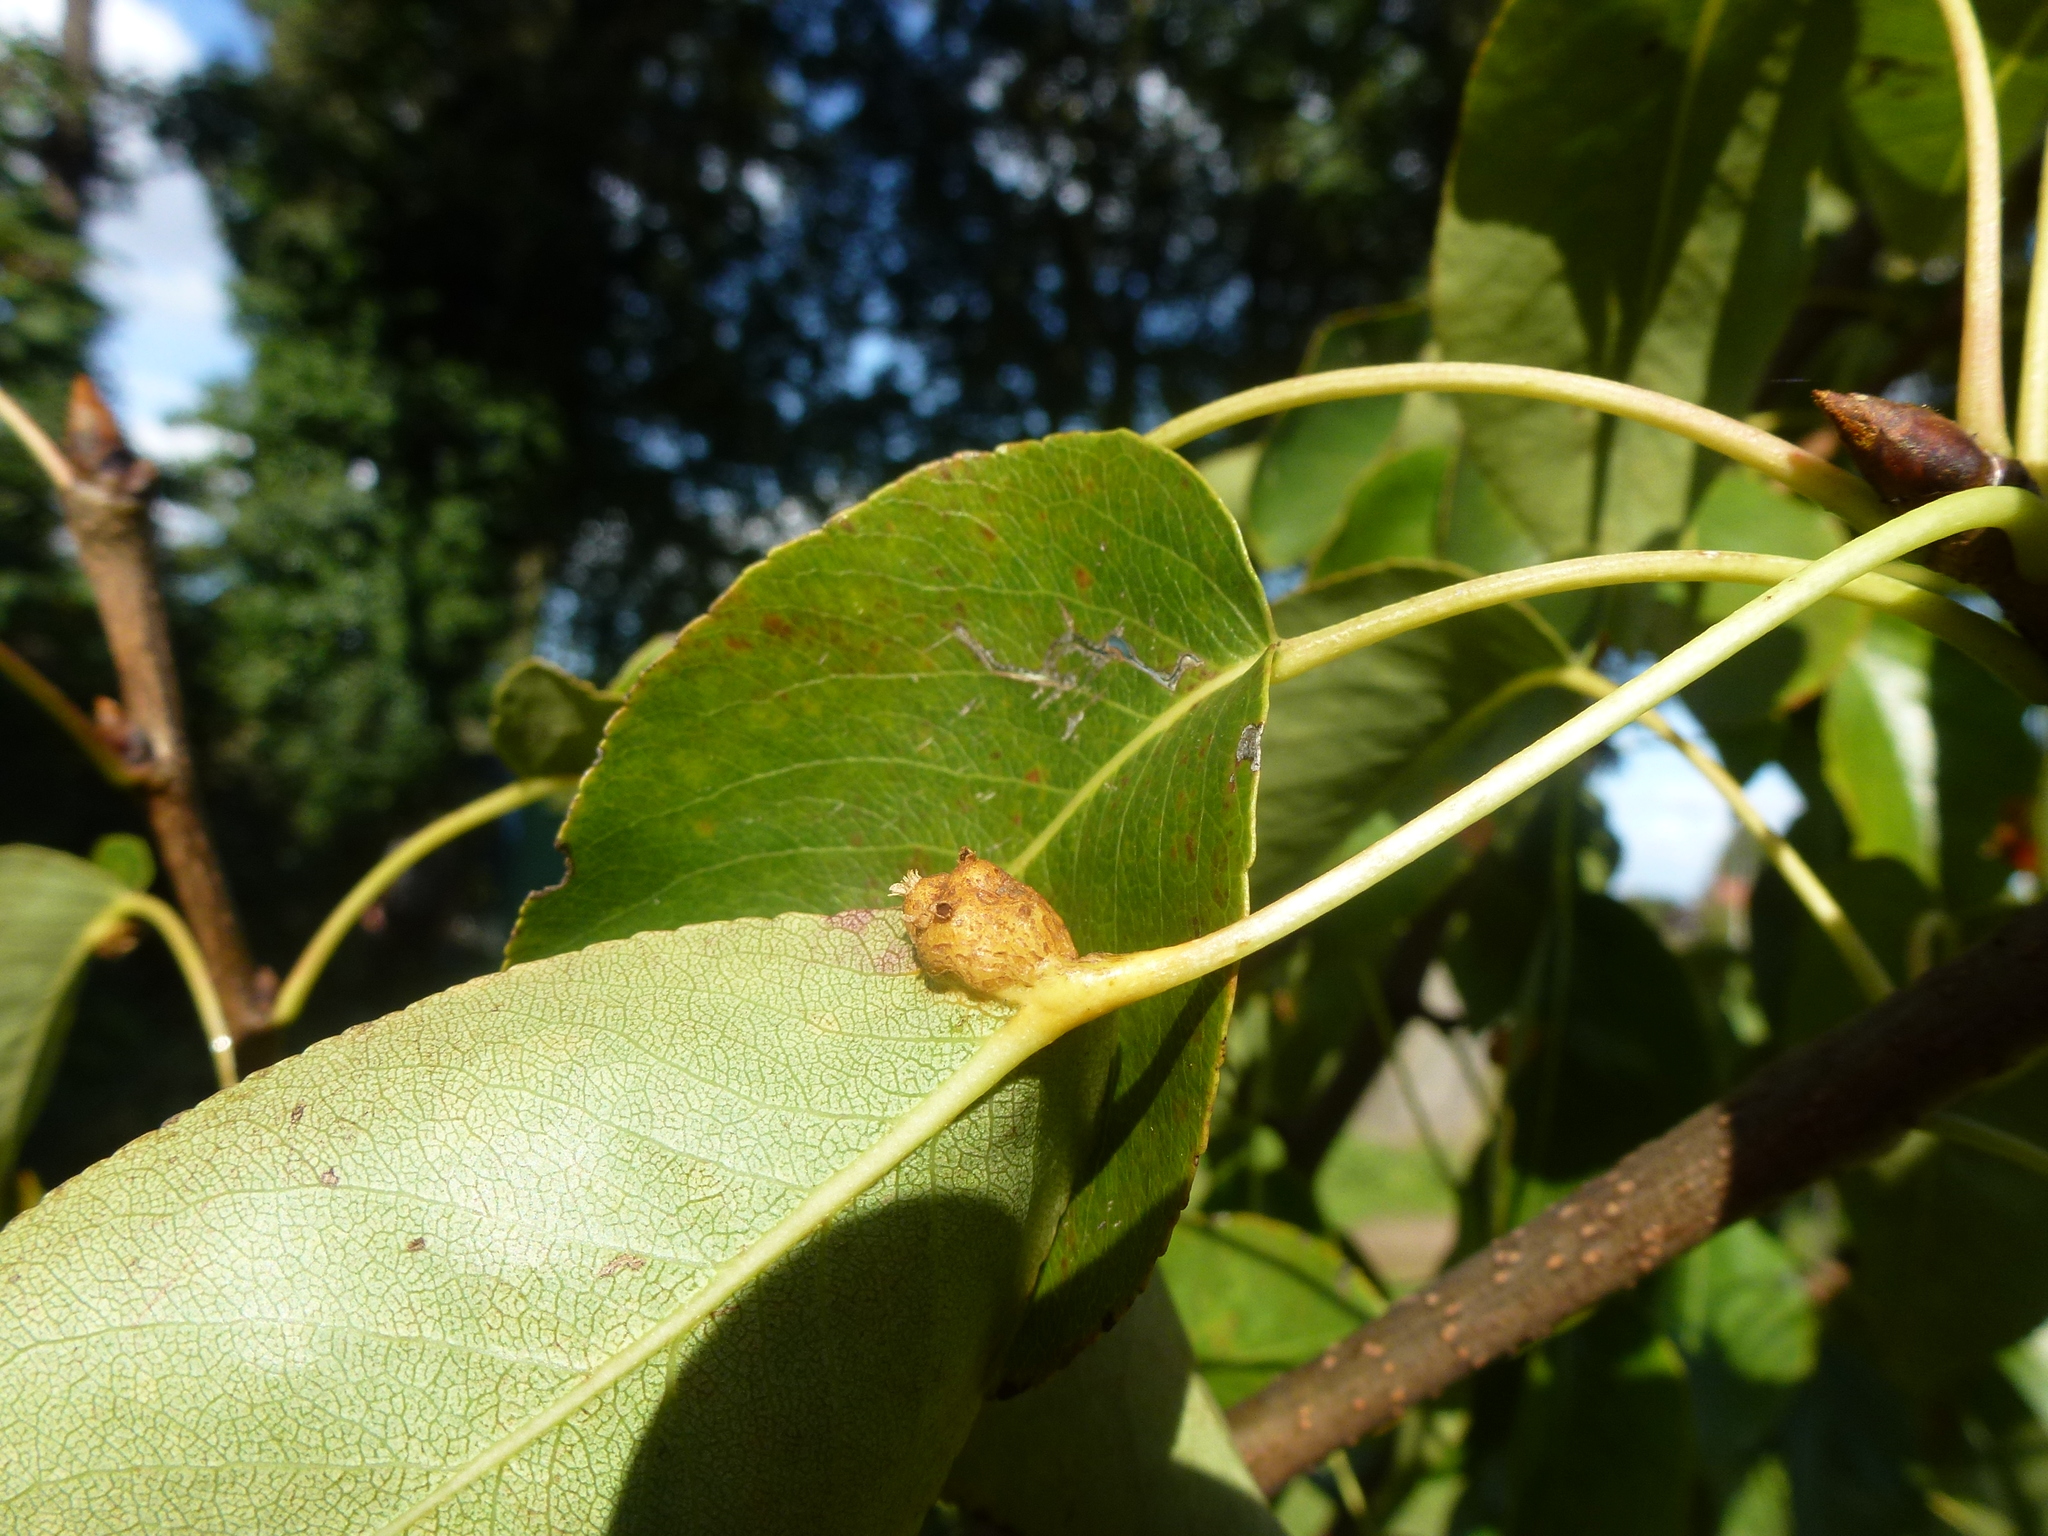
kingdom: Fungi
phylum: Basidiomycota
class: Pucciniomycetes
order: Pucciniales
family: Gymnosporangiaceae
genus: Gymnosporangium
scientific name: Gymnosporangium sabinae
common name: Pear trellis rust fungus
